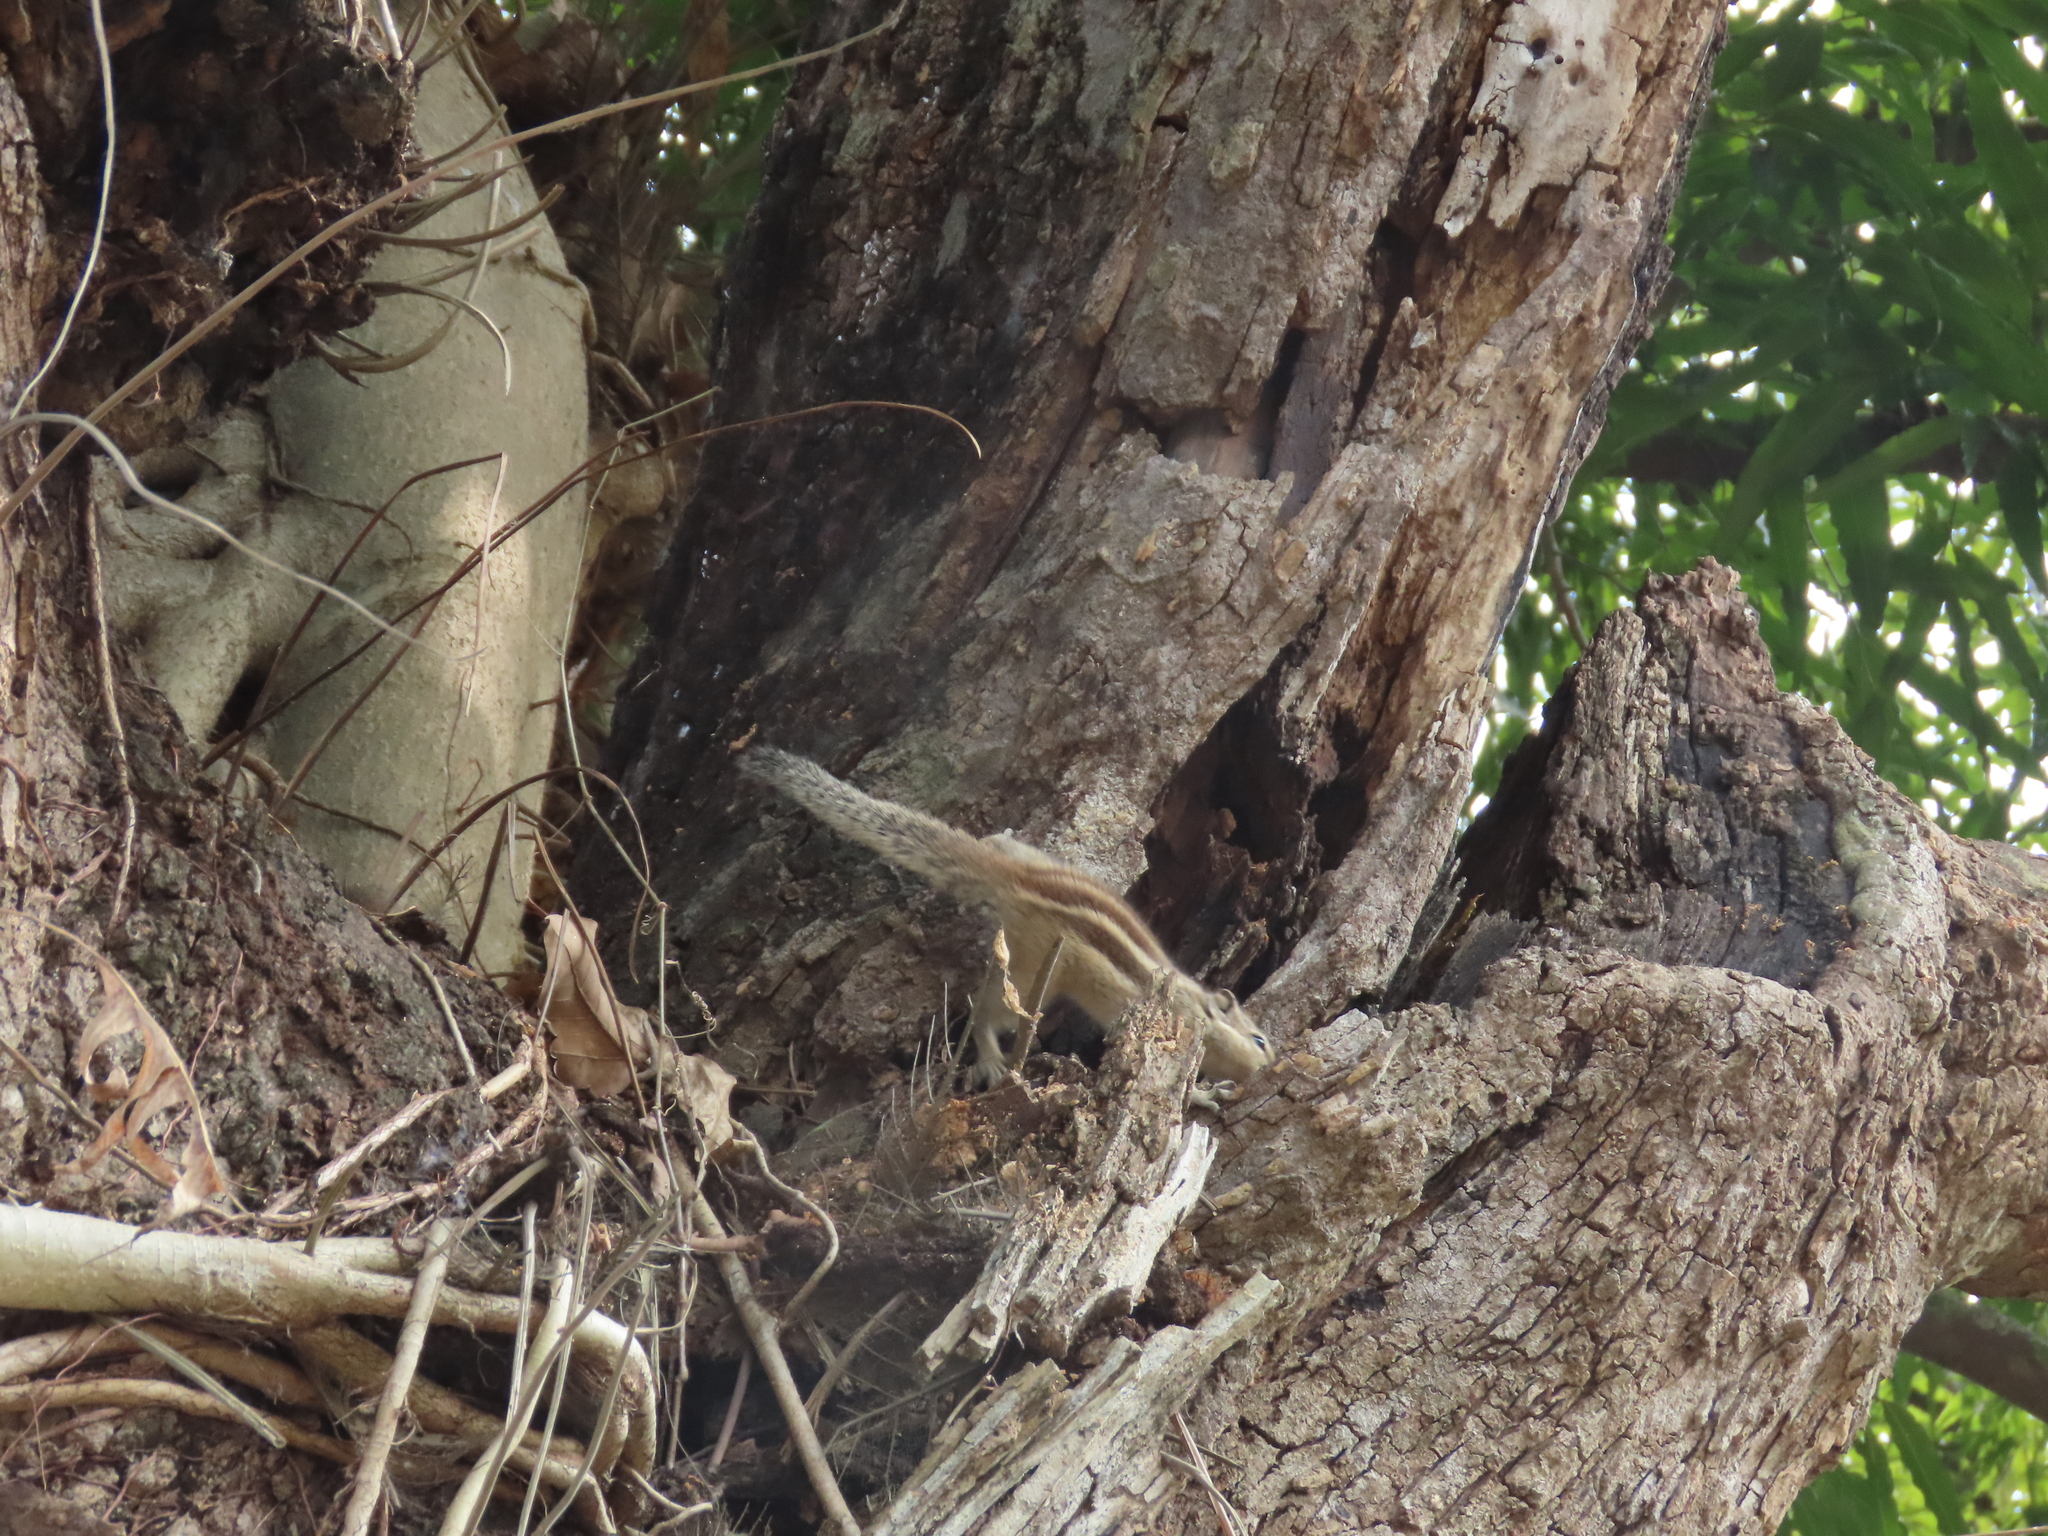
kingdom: Animalia
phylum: Chordata
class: Mammalia
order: Rodentia
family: Sciuridae
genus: Funambulus
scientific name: Funambulus pennantii
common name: Northern palm squirrel
